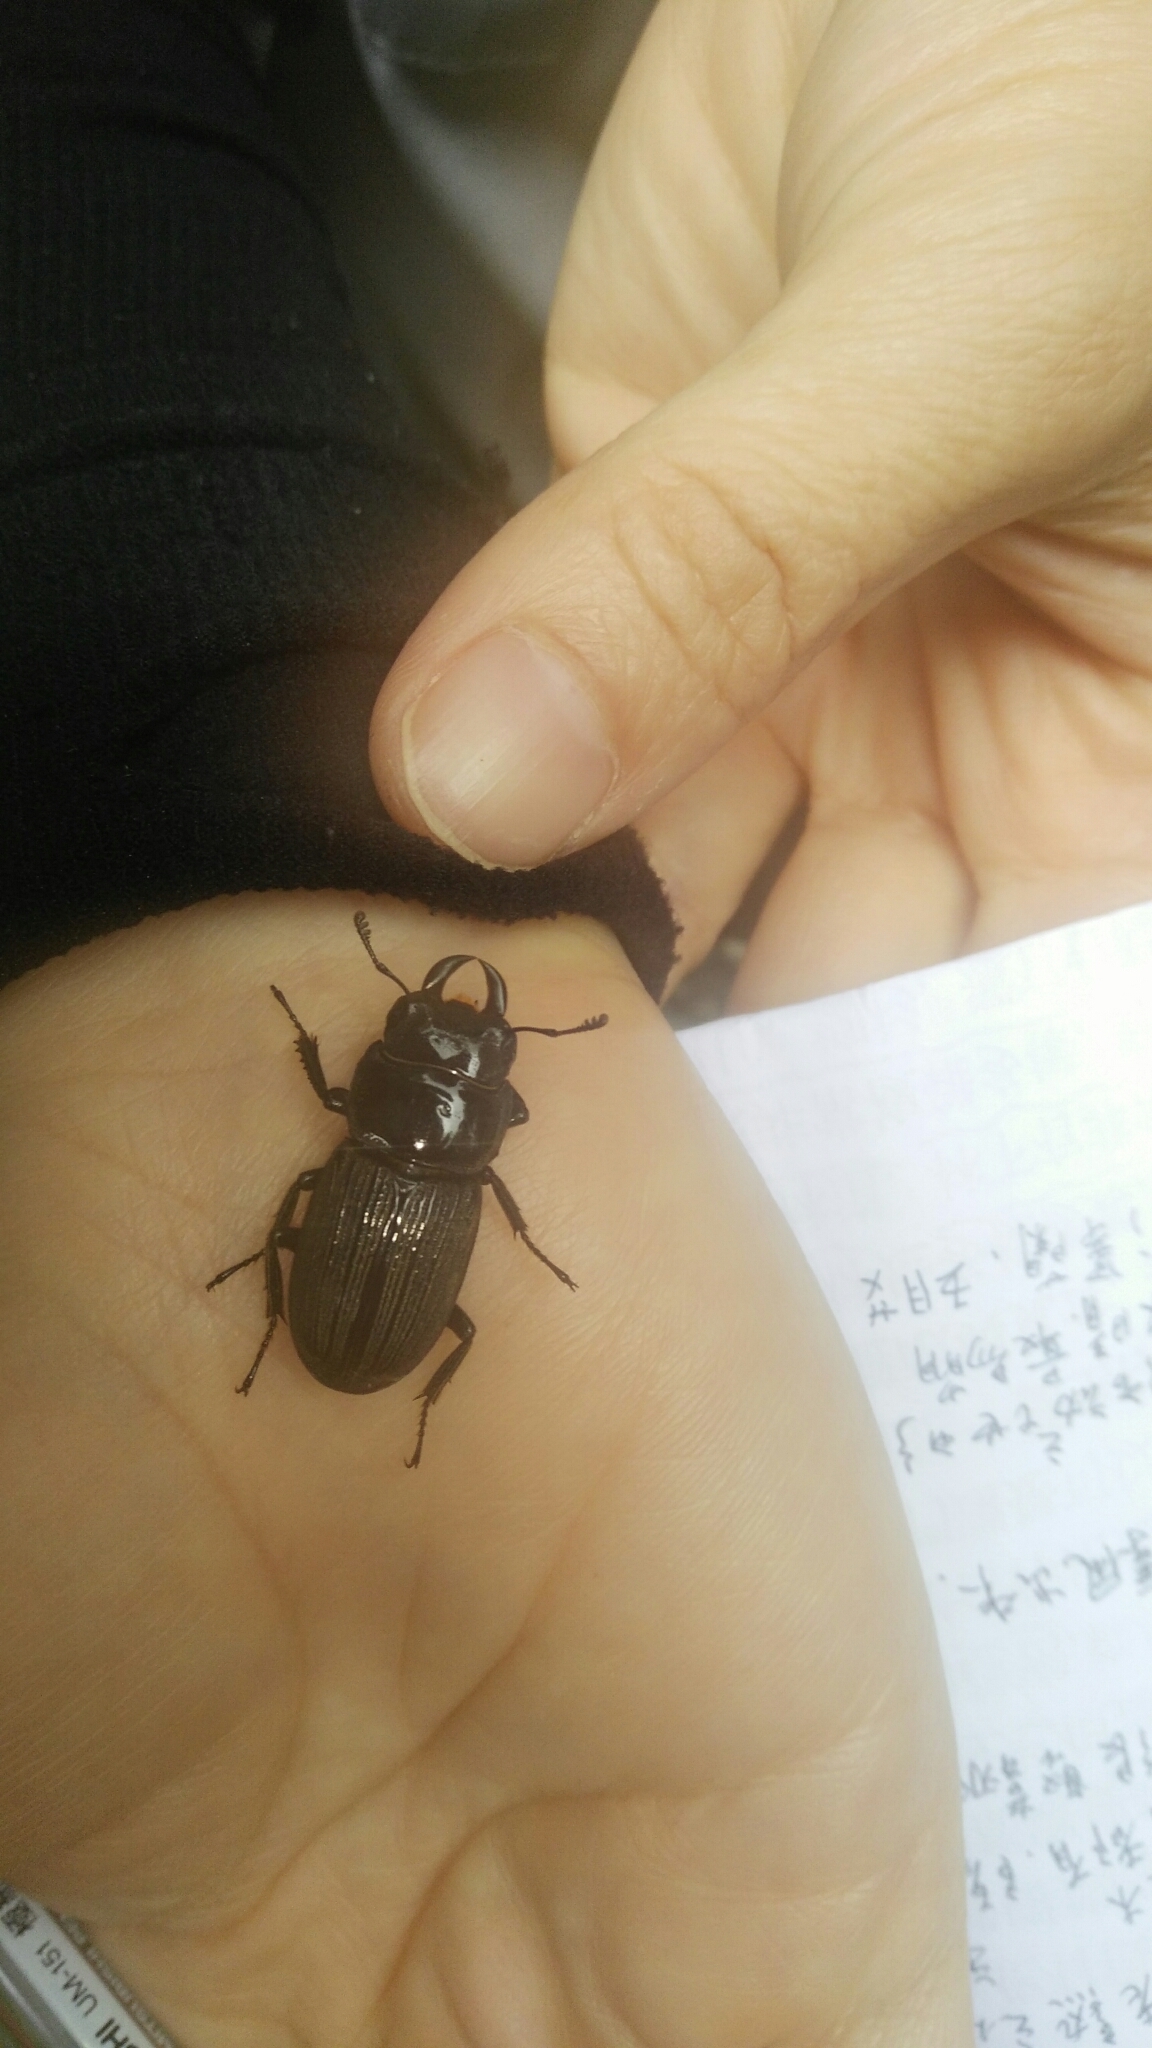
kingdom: Animalia
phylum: Arthropoda
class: Insecta
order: Coleoptera
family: Lucanidae
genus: Dorcus
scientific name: Dorcus miwai
